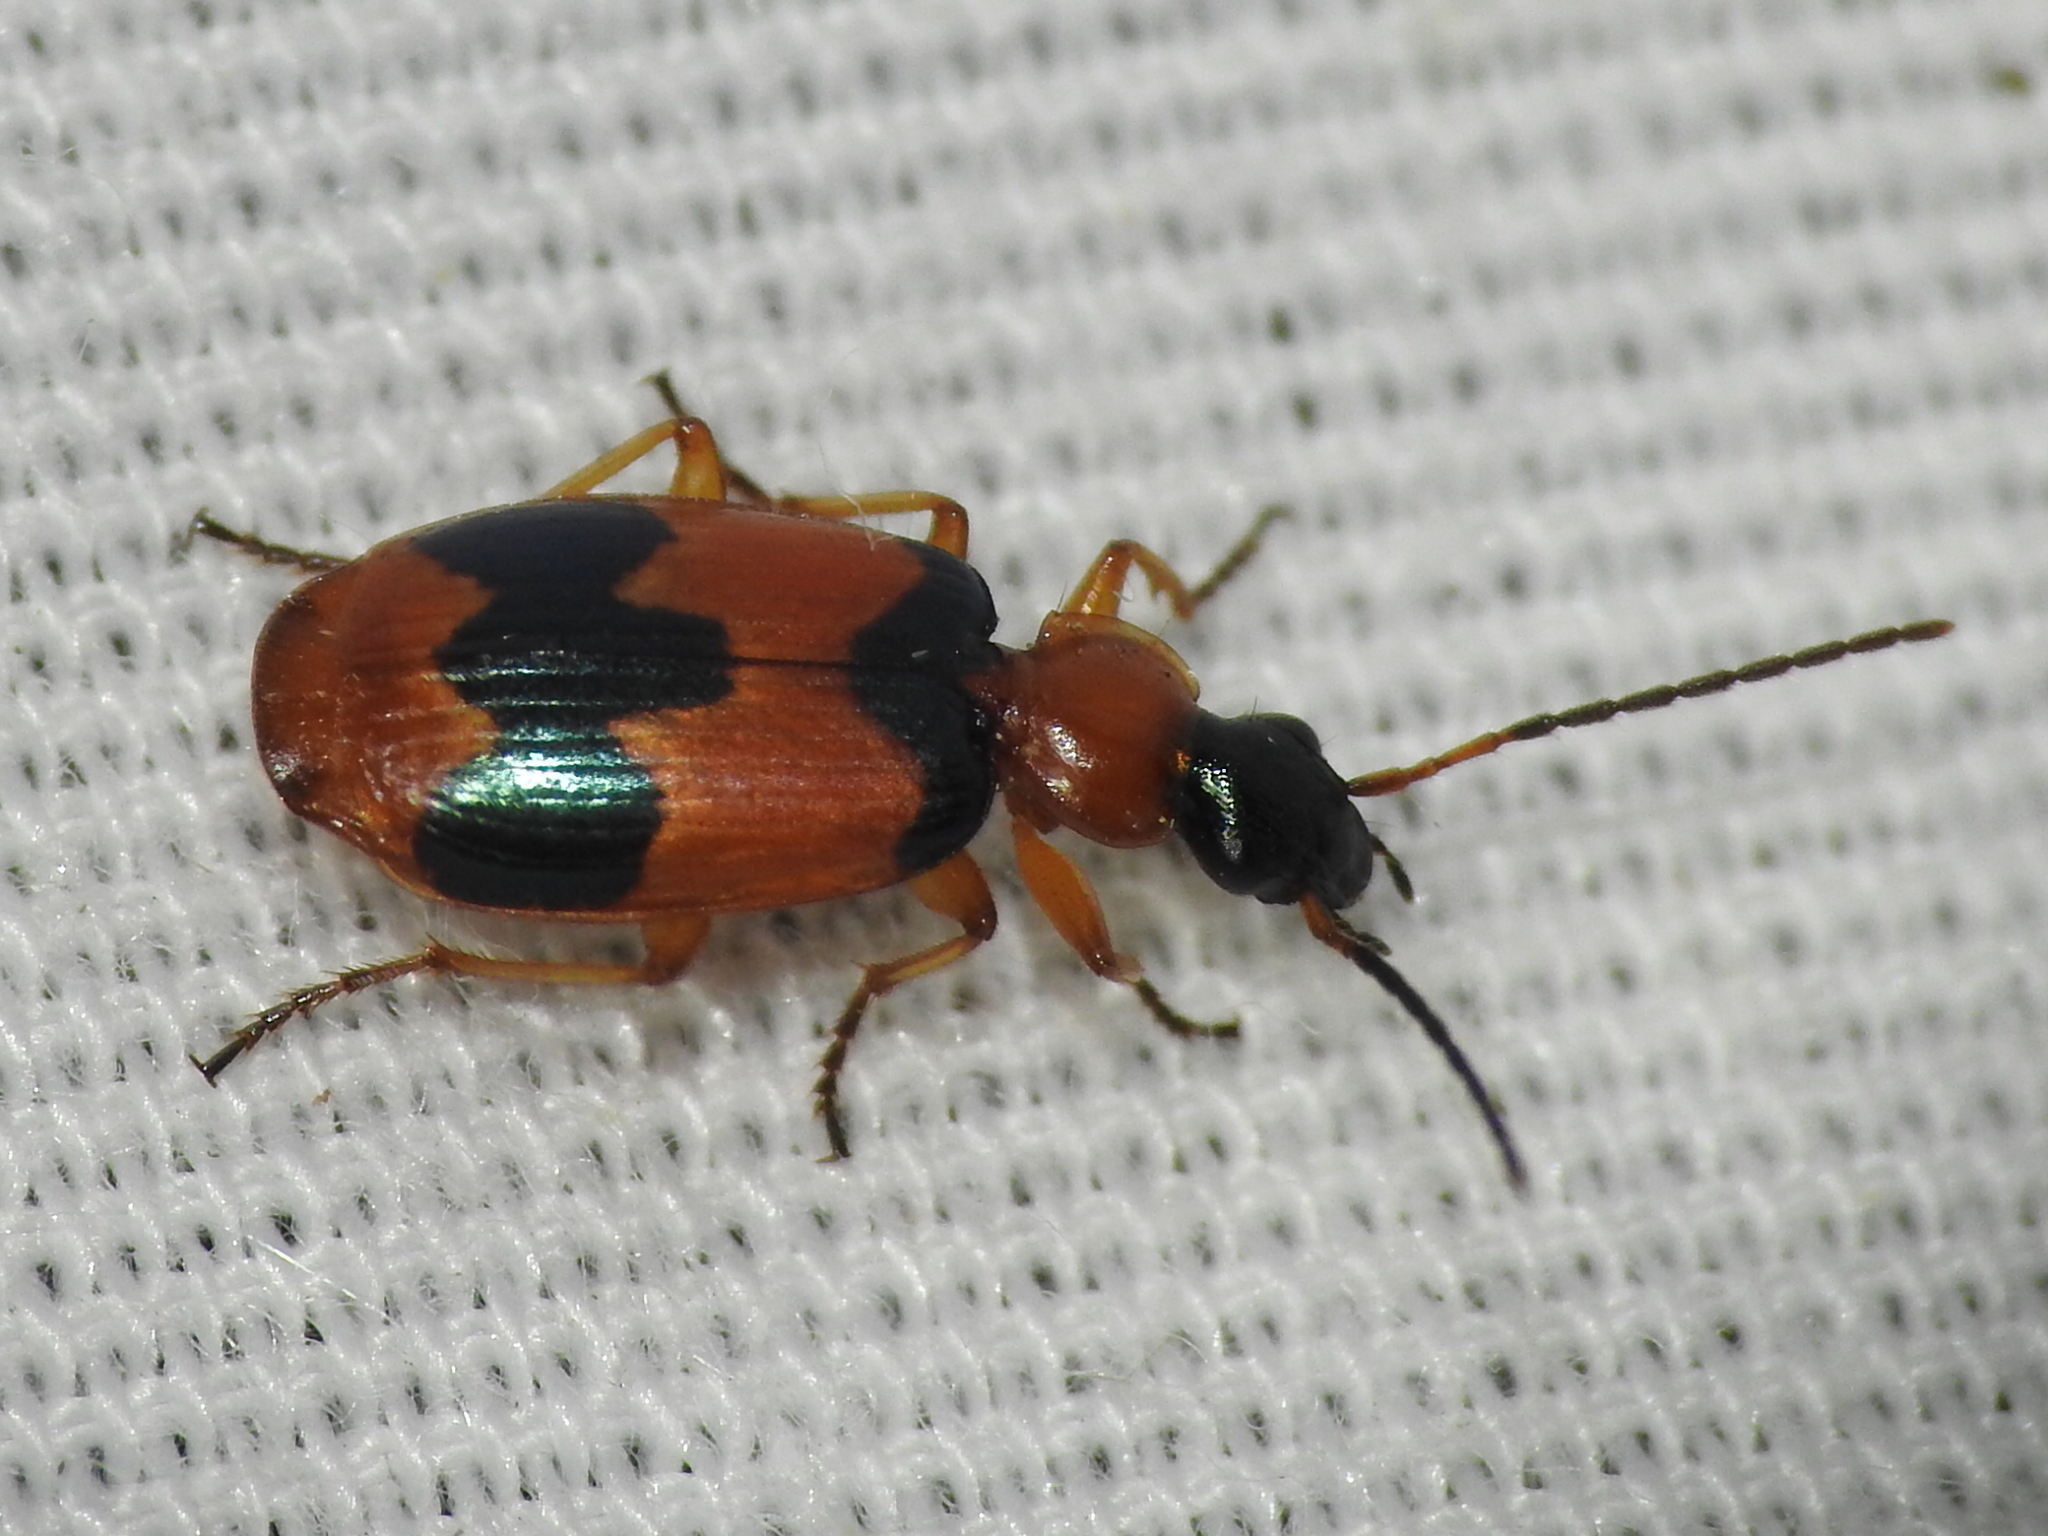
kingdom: Animalia
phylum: Arthropoda
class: Insecta
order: Coleoptera
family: Carabidae
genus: Lebia
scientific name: Lebia pulchella
